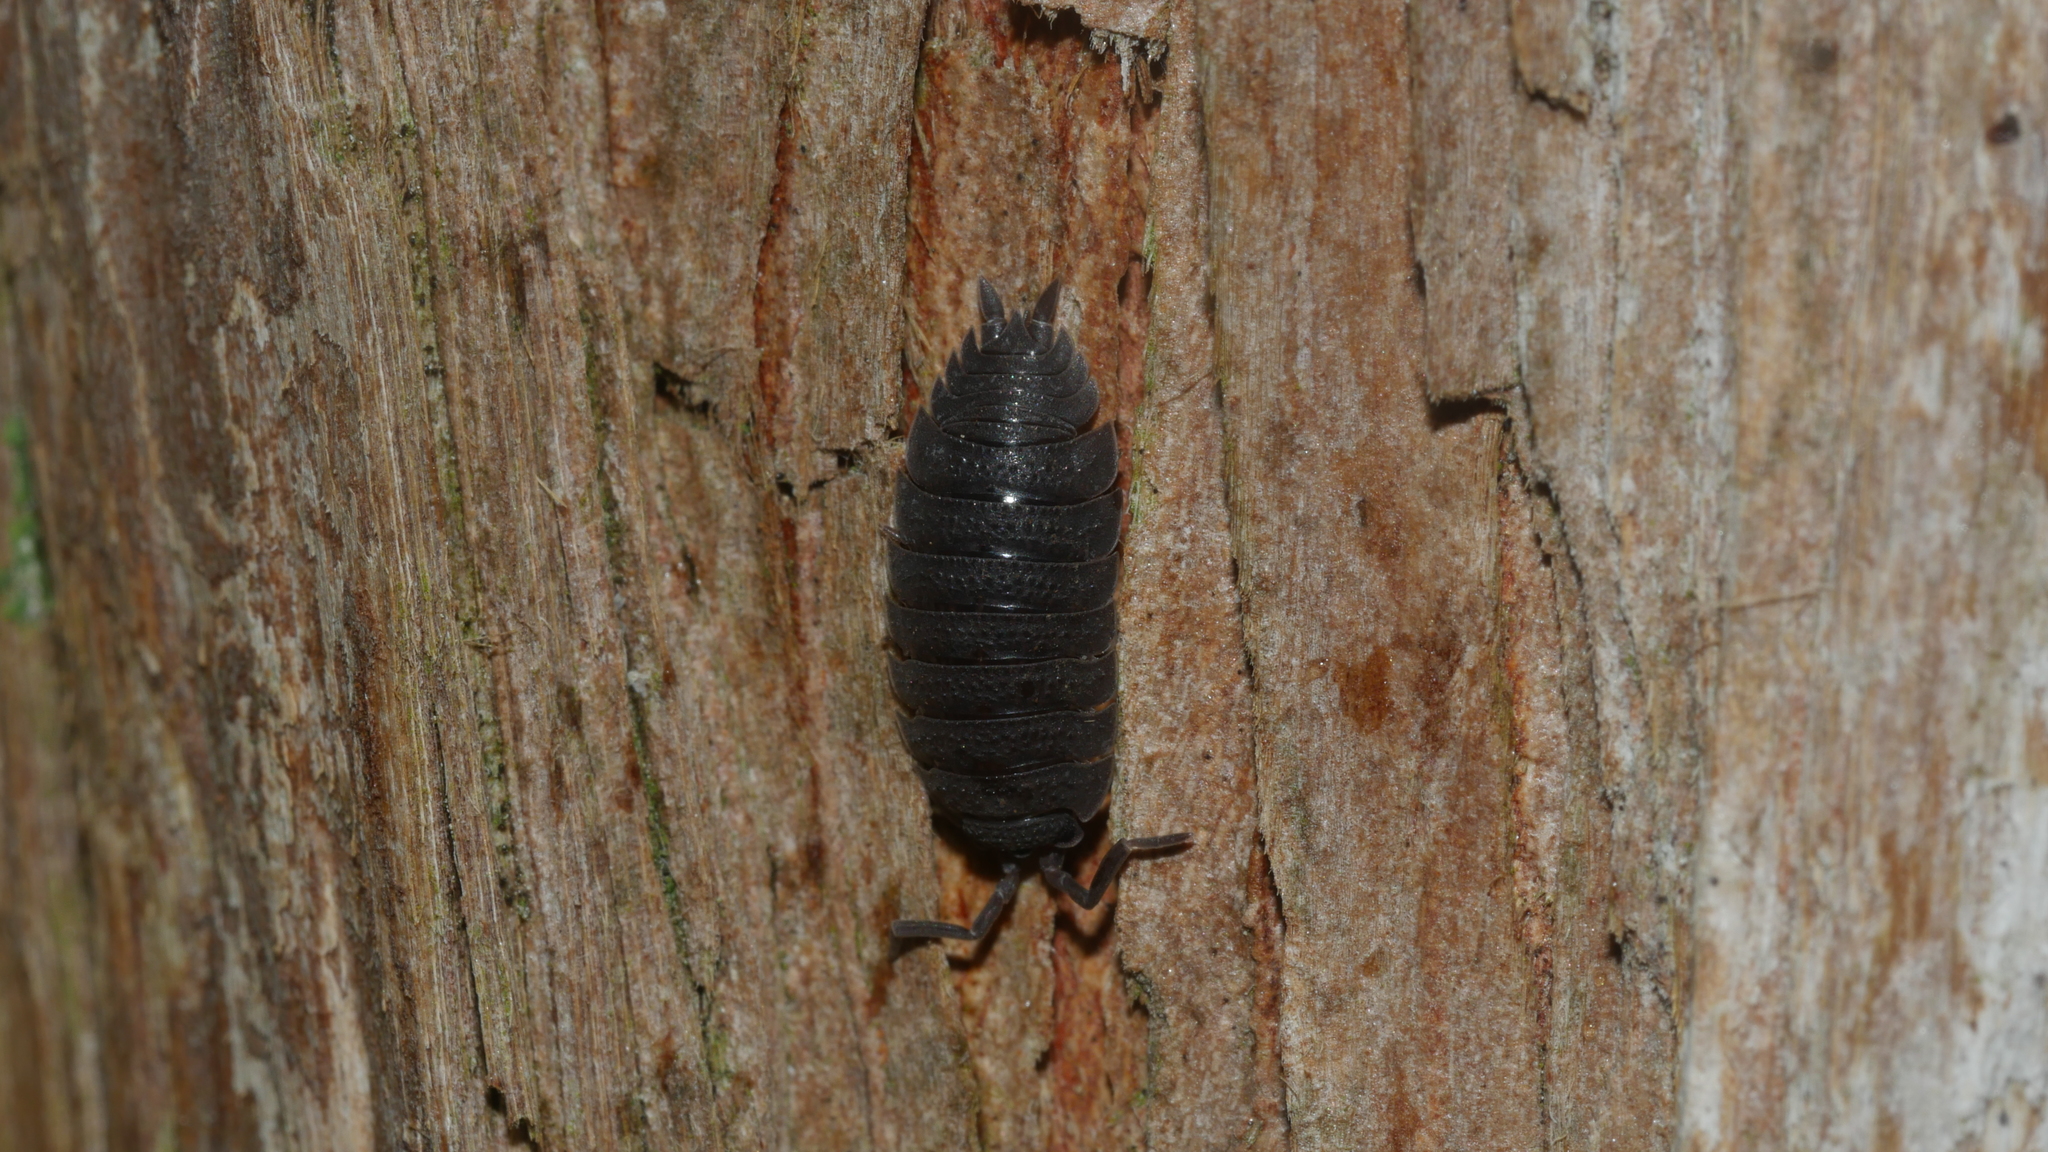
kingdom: Animalia
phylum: Arthropoda
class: Malacostraca
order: Isopoda
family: Porcellionidae
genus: Porcellio
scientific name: Porcellio scaber
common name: Common rough woodlouse
